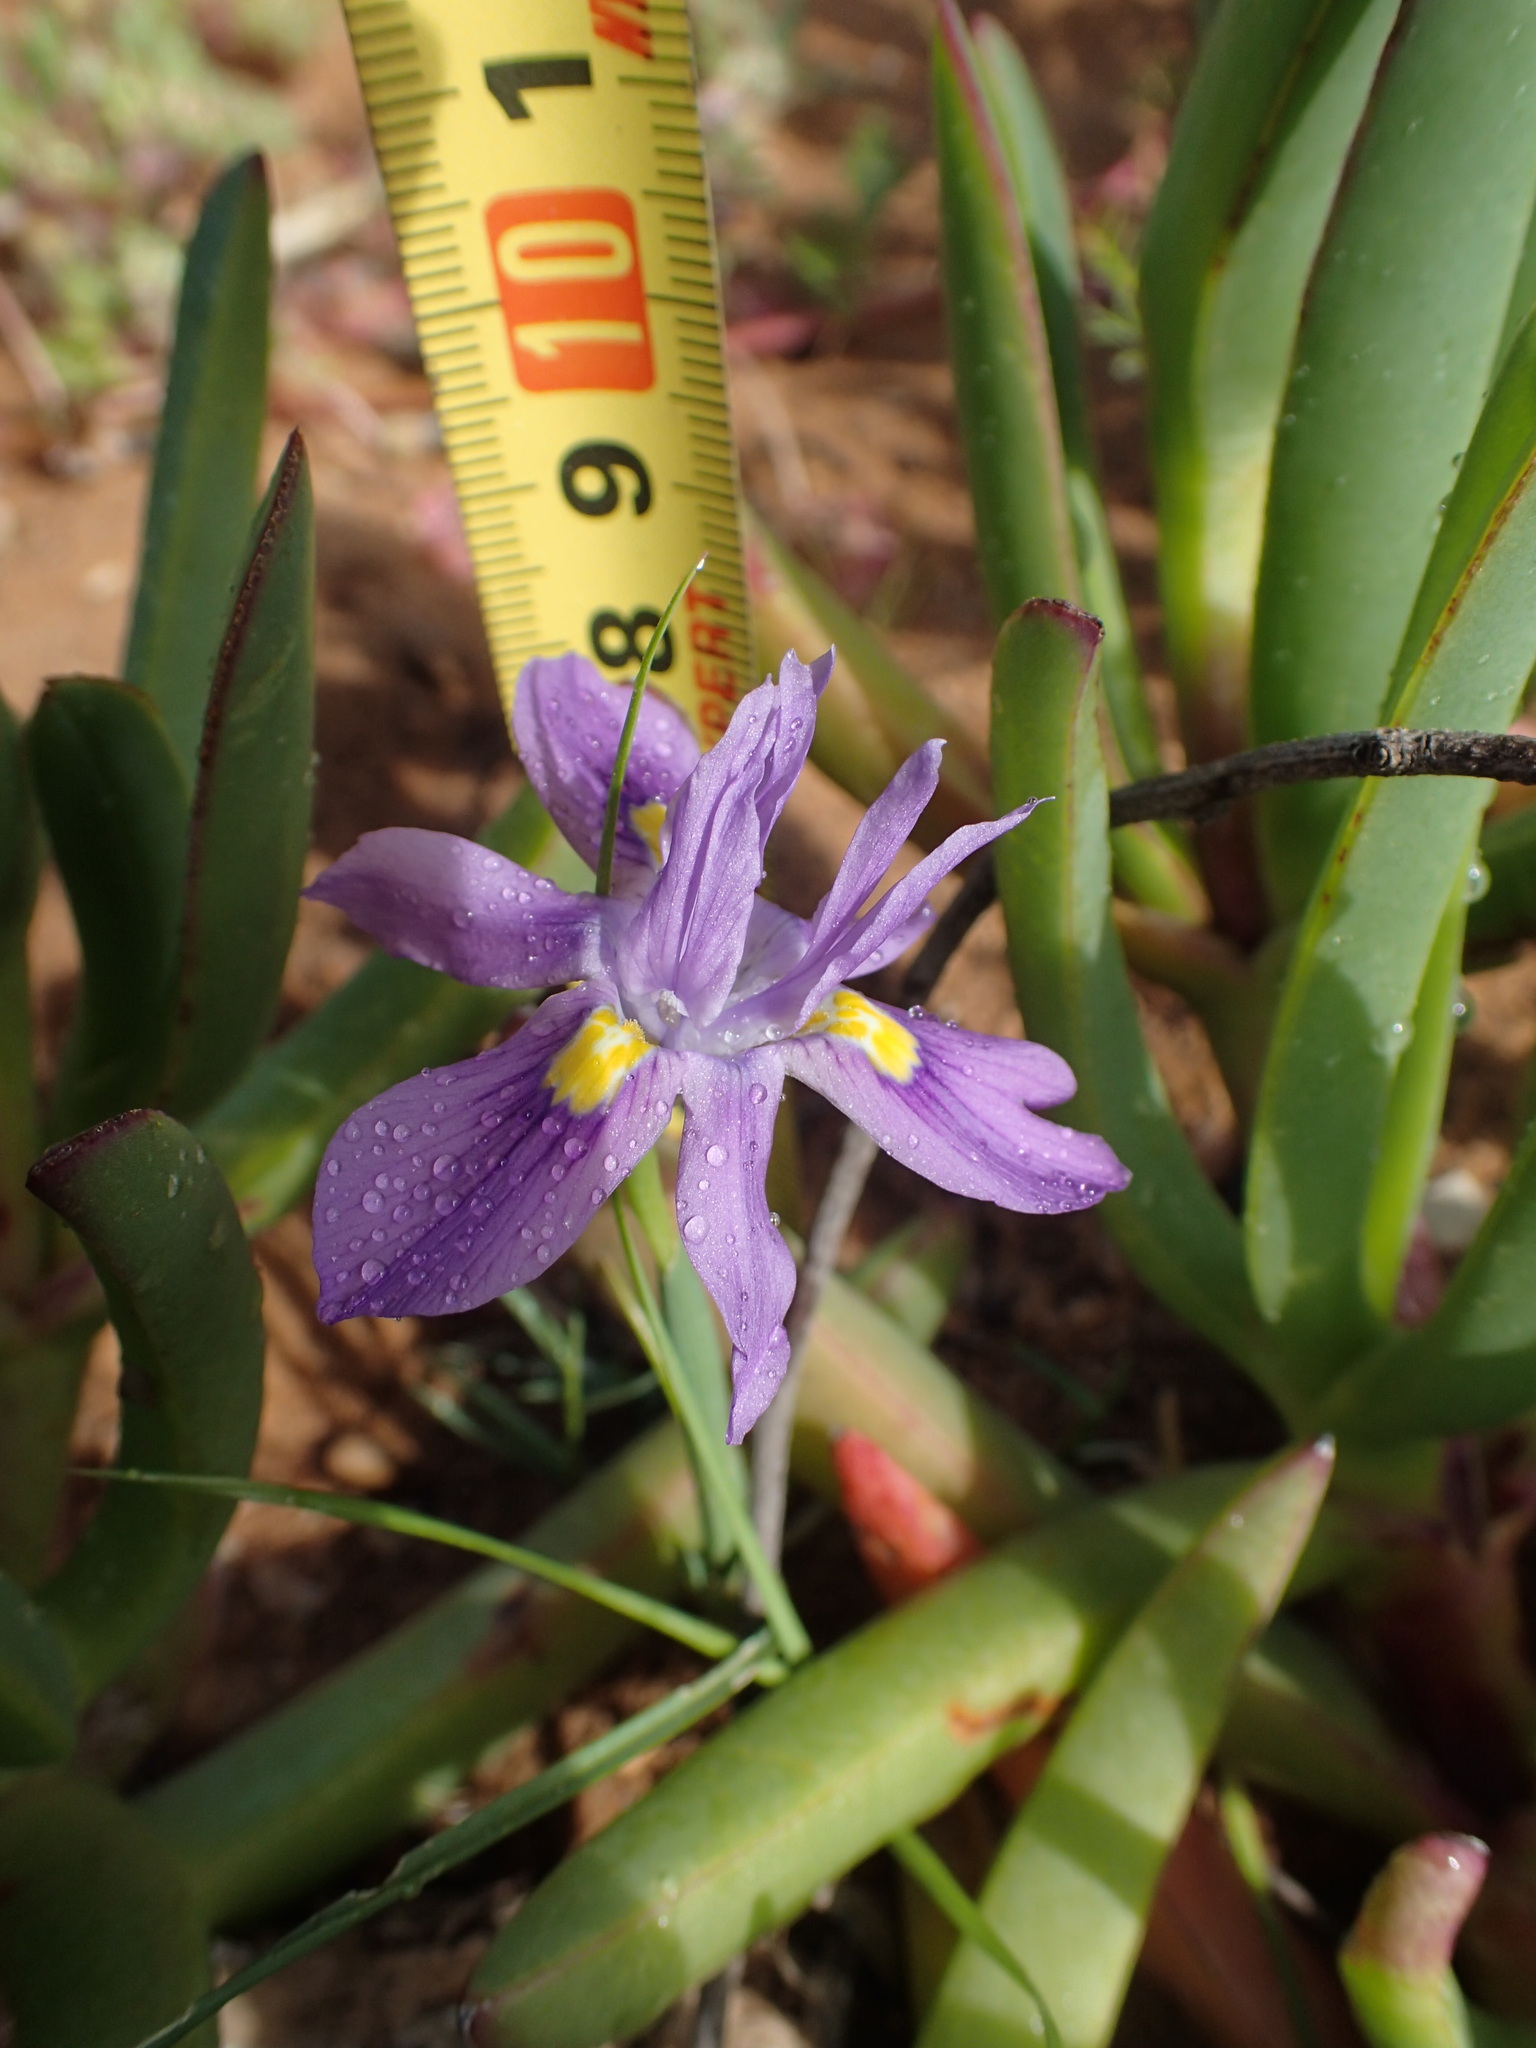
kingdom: Plantae
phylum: Tracheophyta
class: Liliopsida
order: Asparagales
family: Iridaceae
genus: Moraea
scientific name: Moraea macrocarpa
